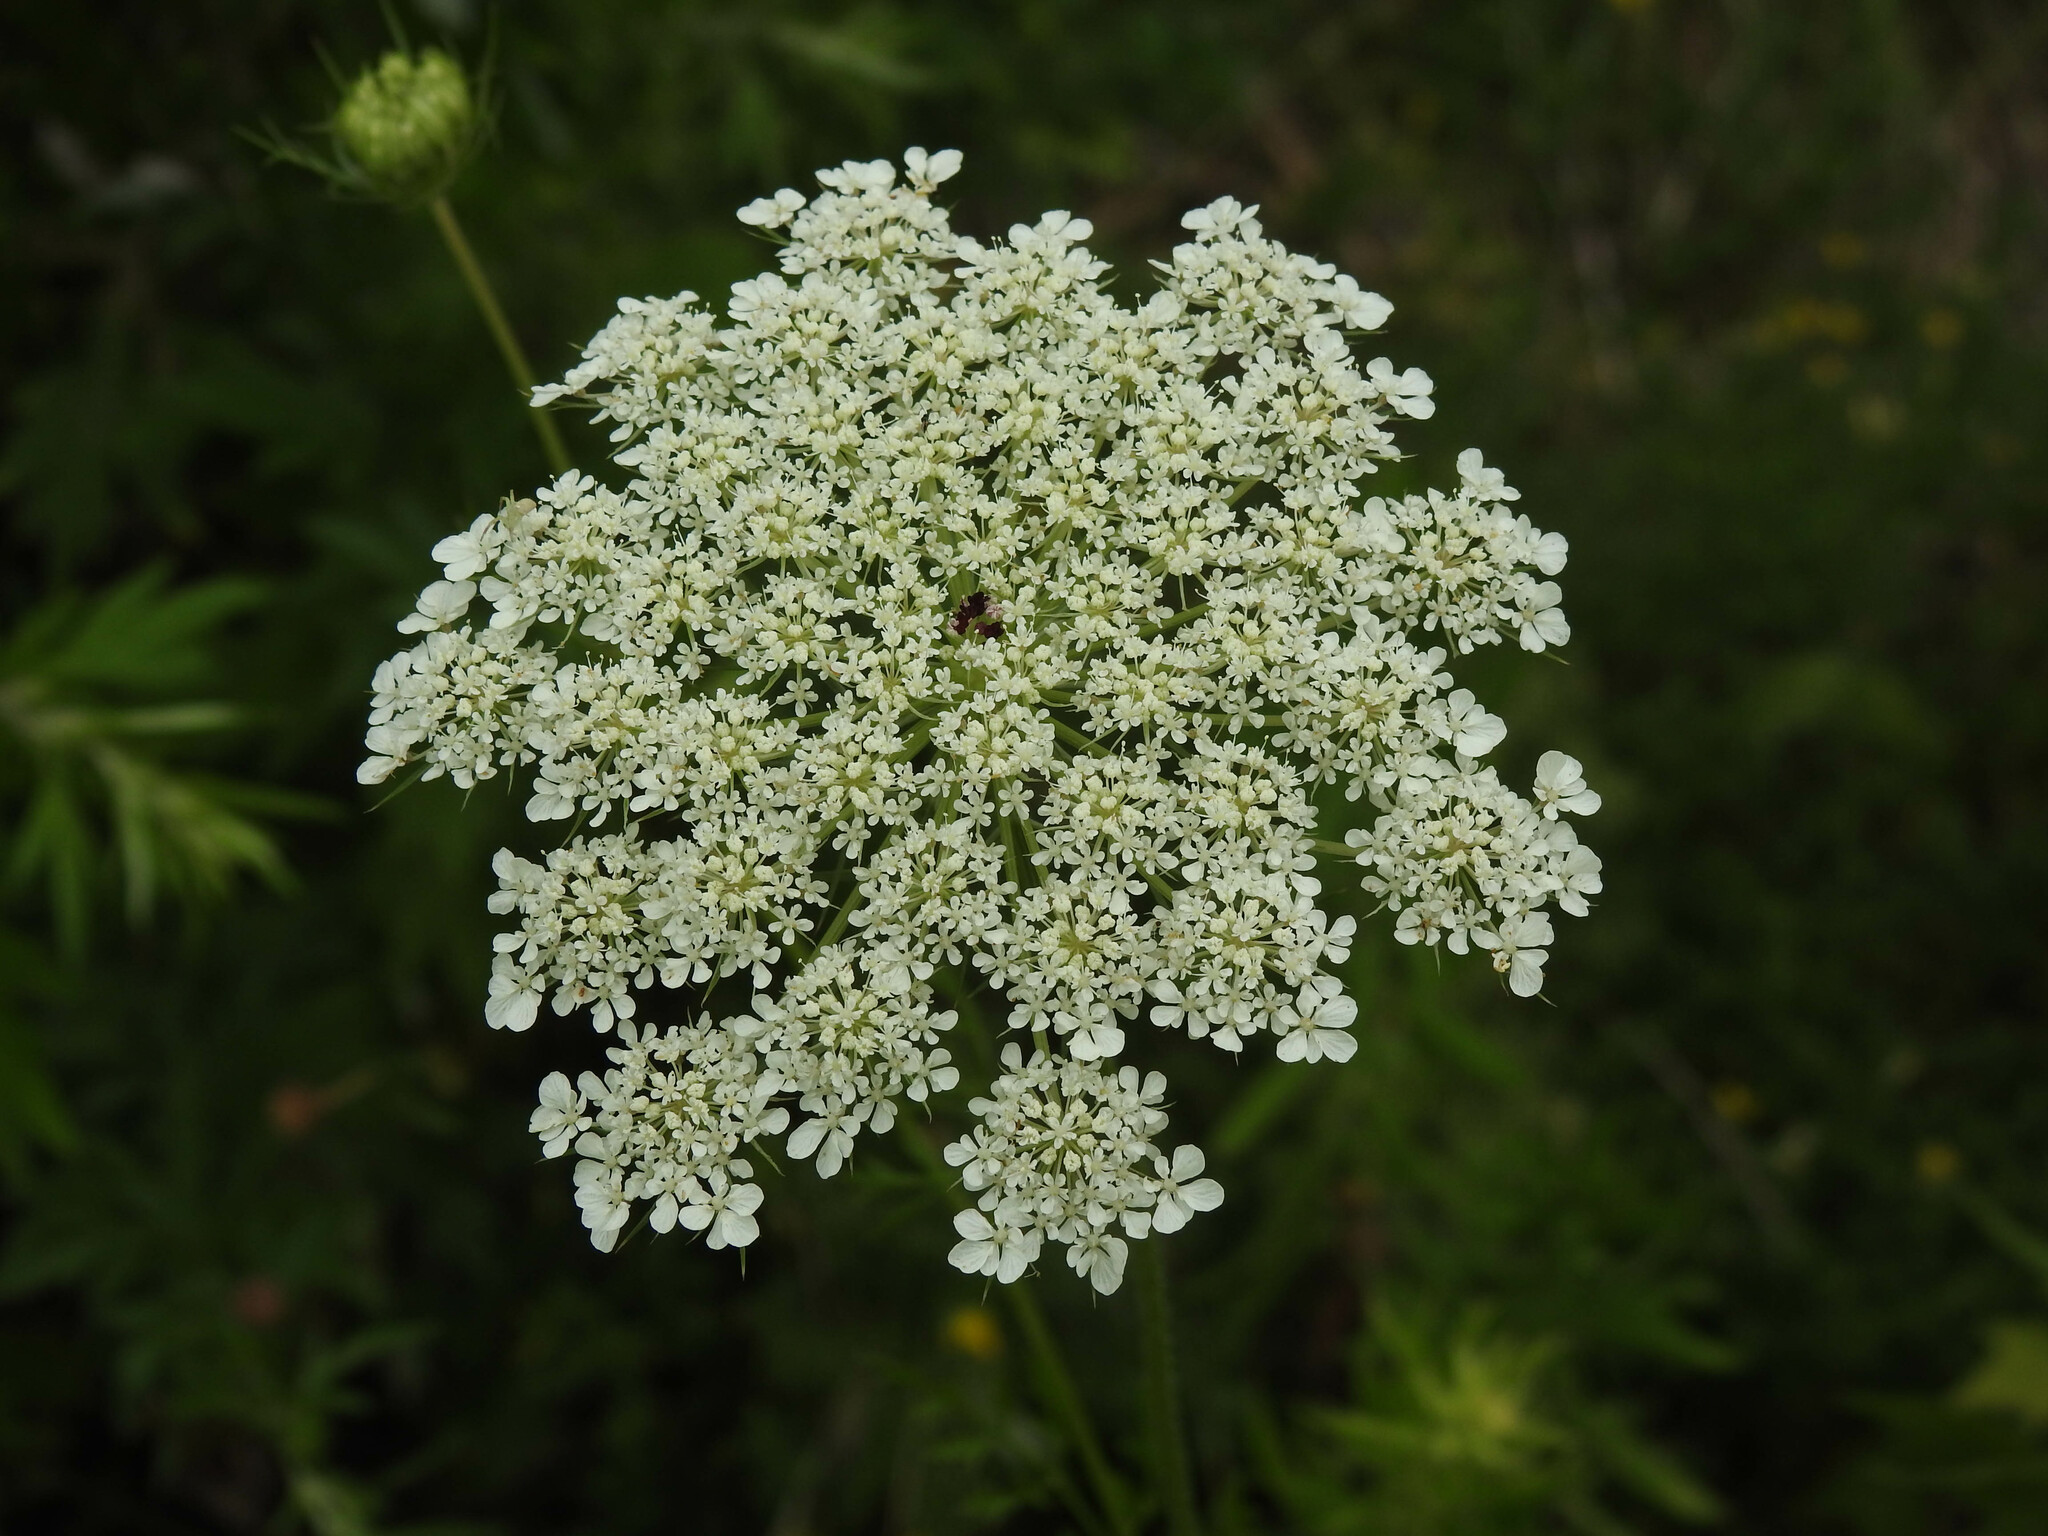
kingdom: Plantae
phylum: Tracheophyta
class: Magnoliopsida
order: Apiales
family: Apiaceae
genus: Daucus
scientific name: Daucus carota
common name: Wild carrot
